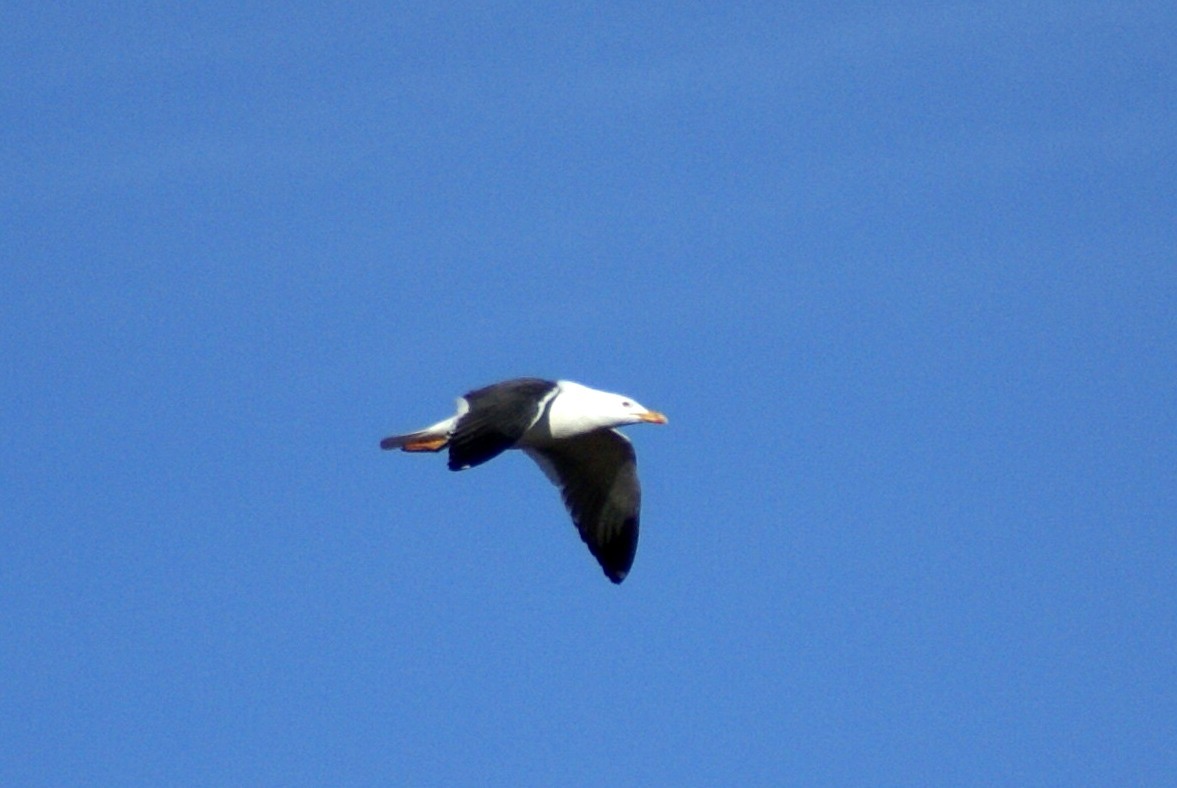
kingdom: Animalia
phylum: Chordata
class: Aves
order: Charadriiformes
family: Laridae
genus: Larus
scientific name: Larus fuscus
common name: Lesser black-backed gull
